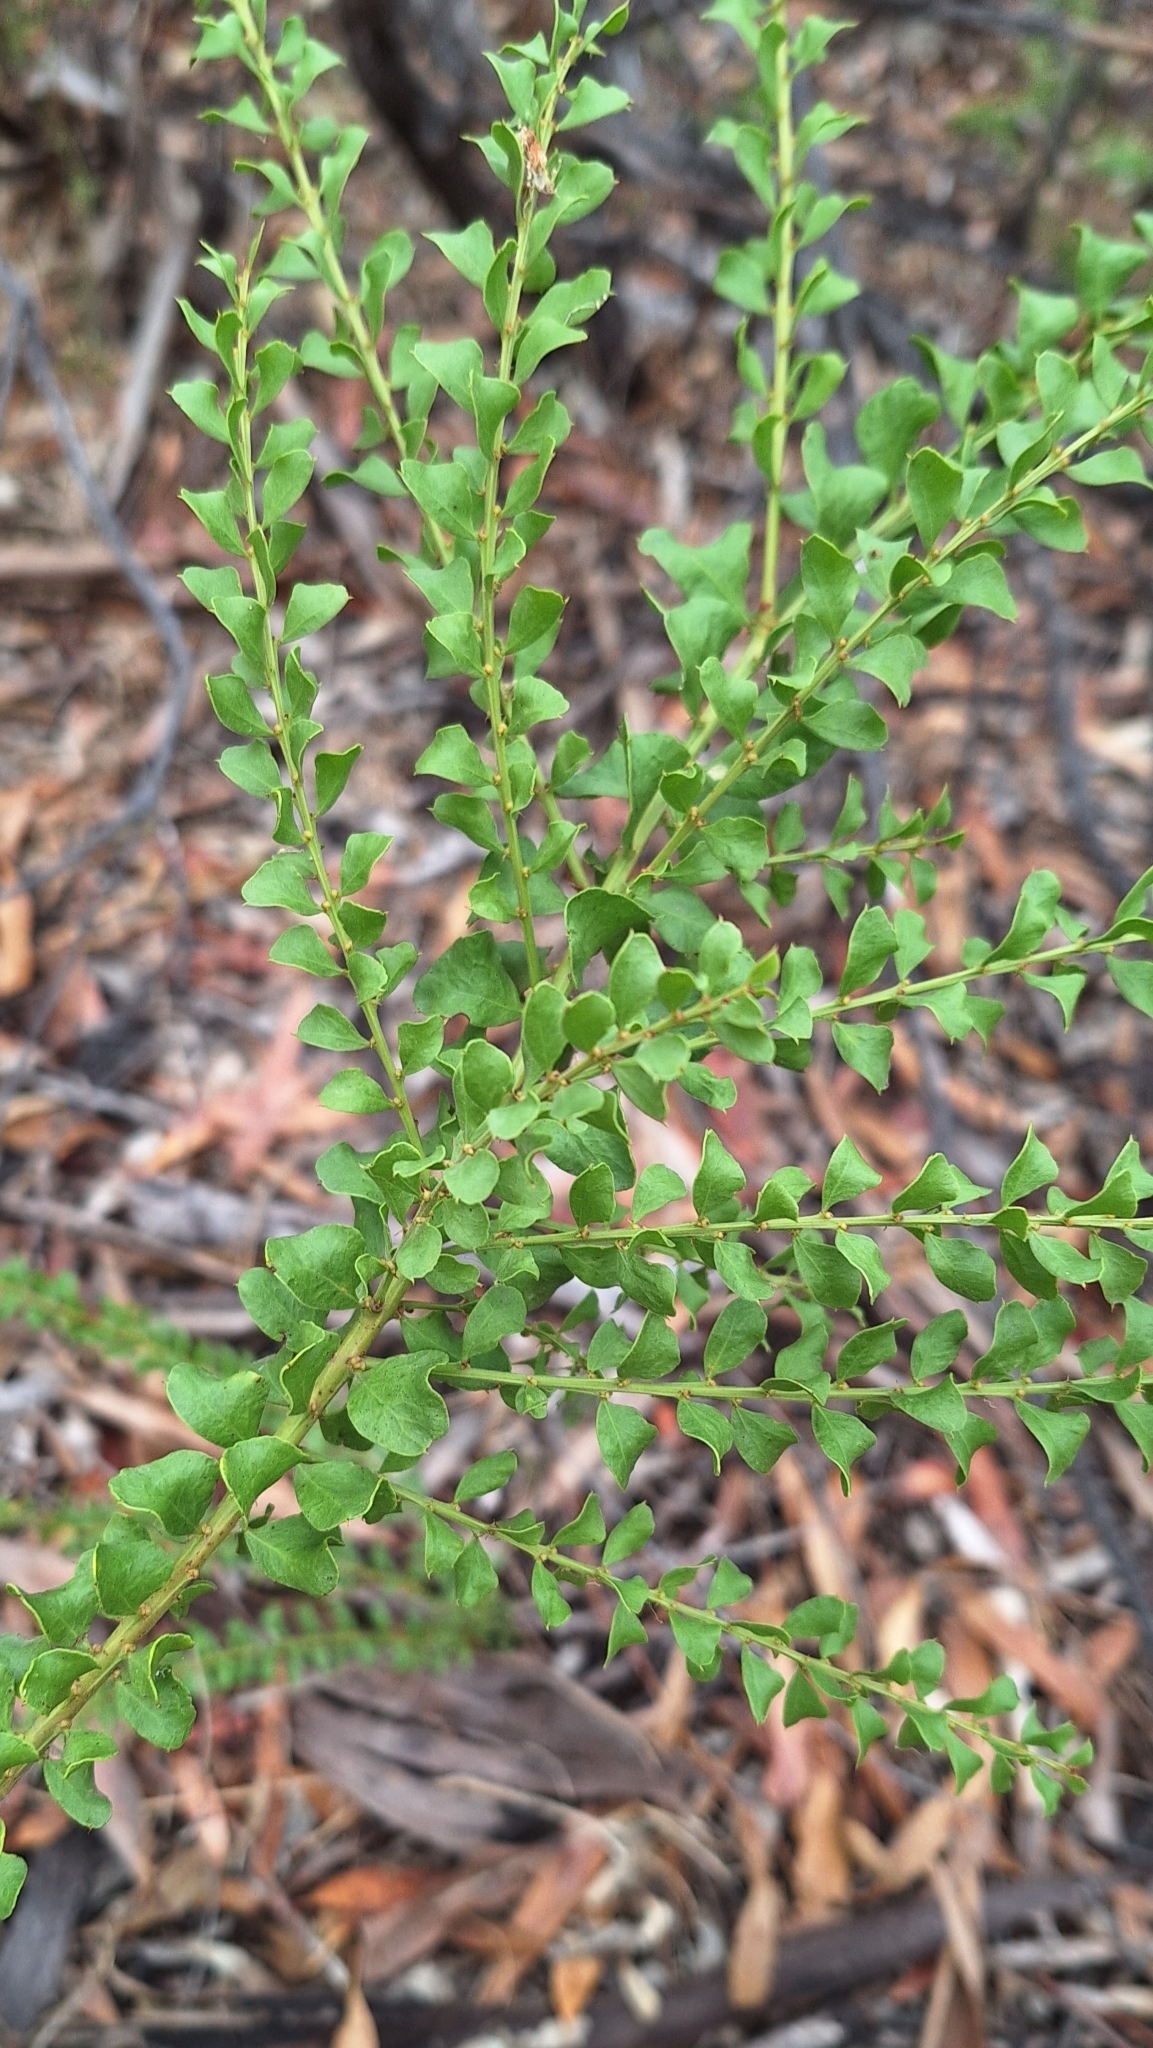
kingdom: Plantae
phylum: Tracheophyta
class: Magnoliopsida
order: Fabales
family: Fabaceae
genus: Acacia
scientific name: Acacia acinacea
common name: Gold-dust acacia
